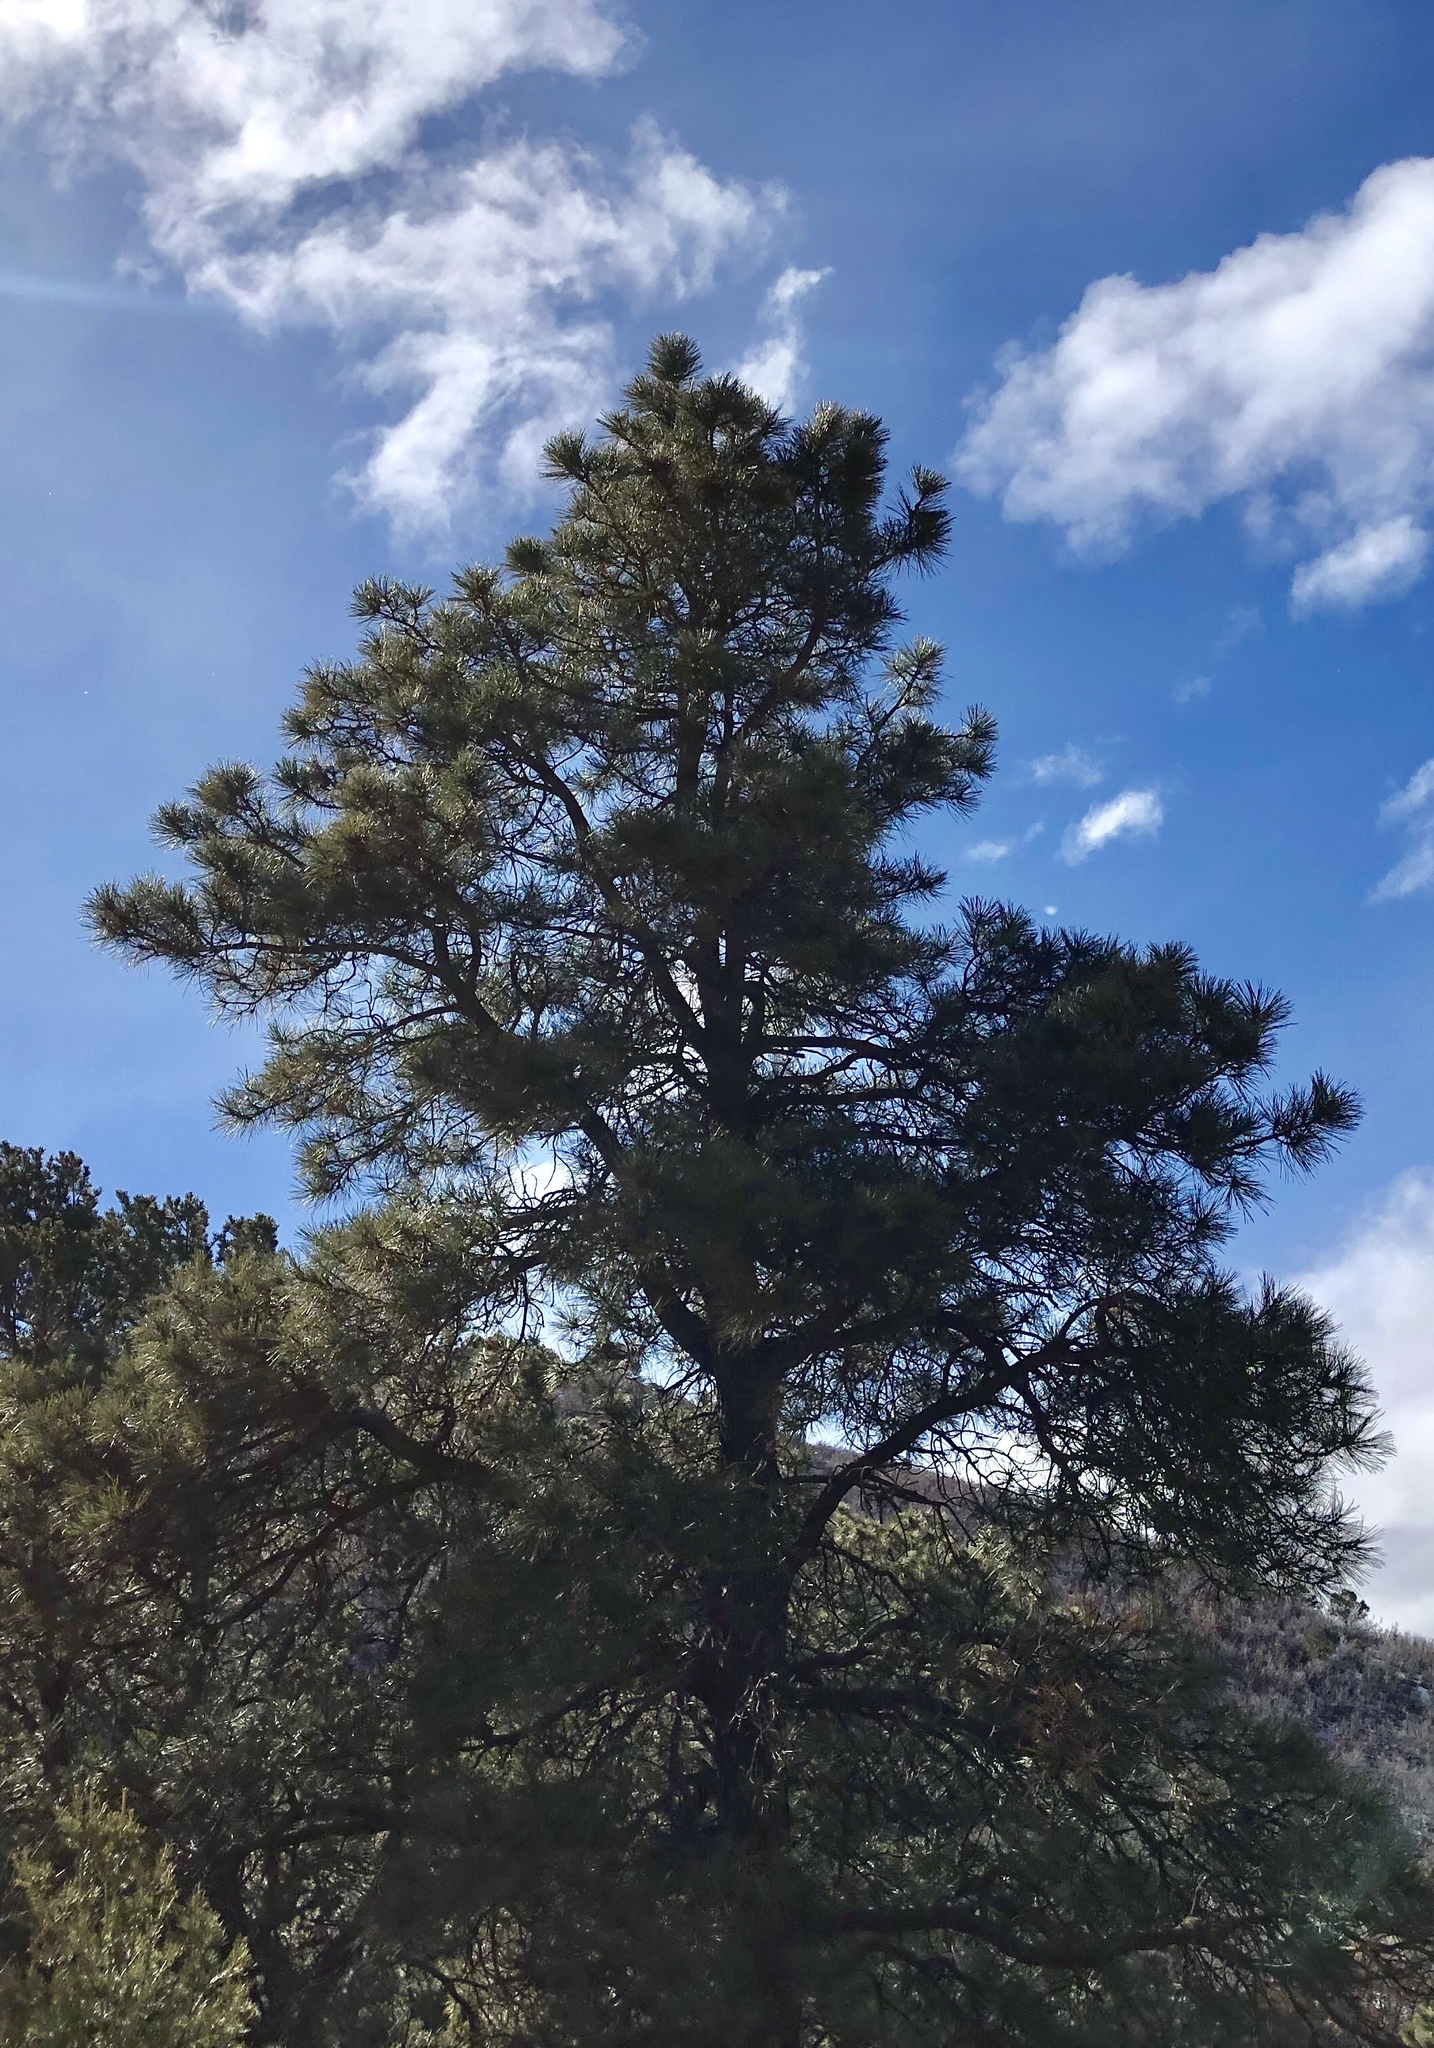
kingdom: Plantae
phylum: Tracheophyta
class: Pinopsida
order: Pinales
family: Pinaceae
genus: Pinus
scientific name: Pinus ponderosa
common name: Western yellow-pine
